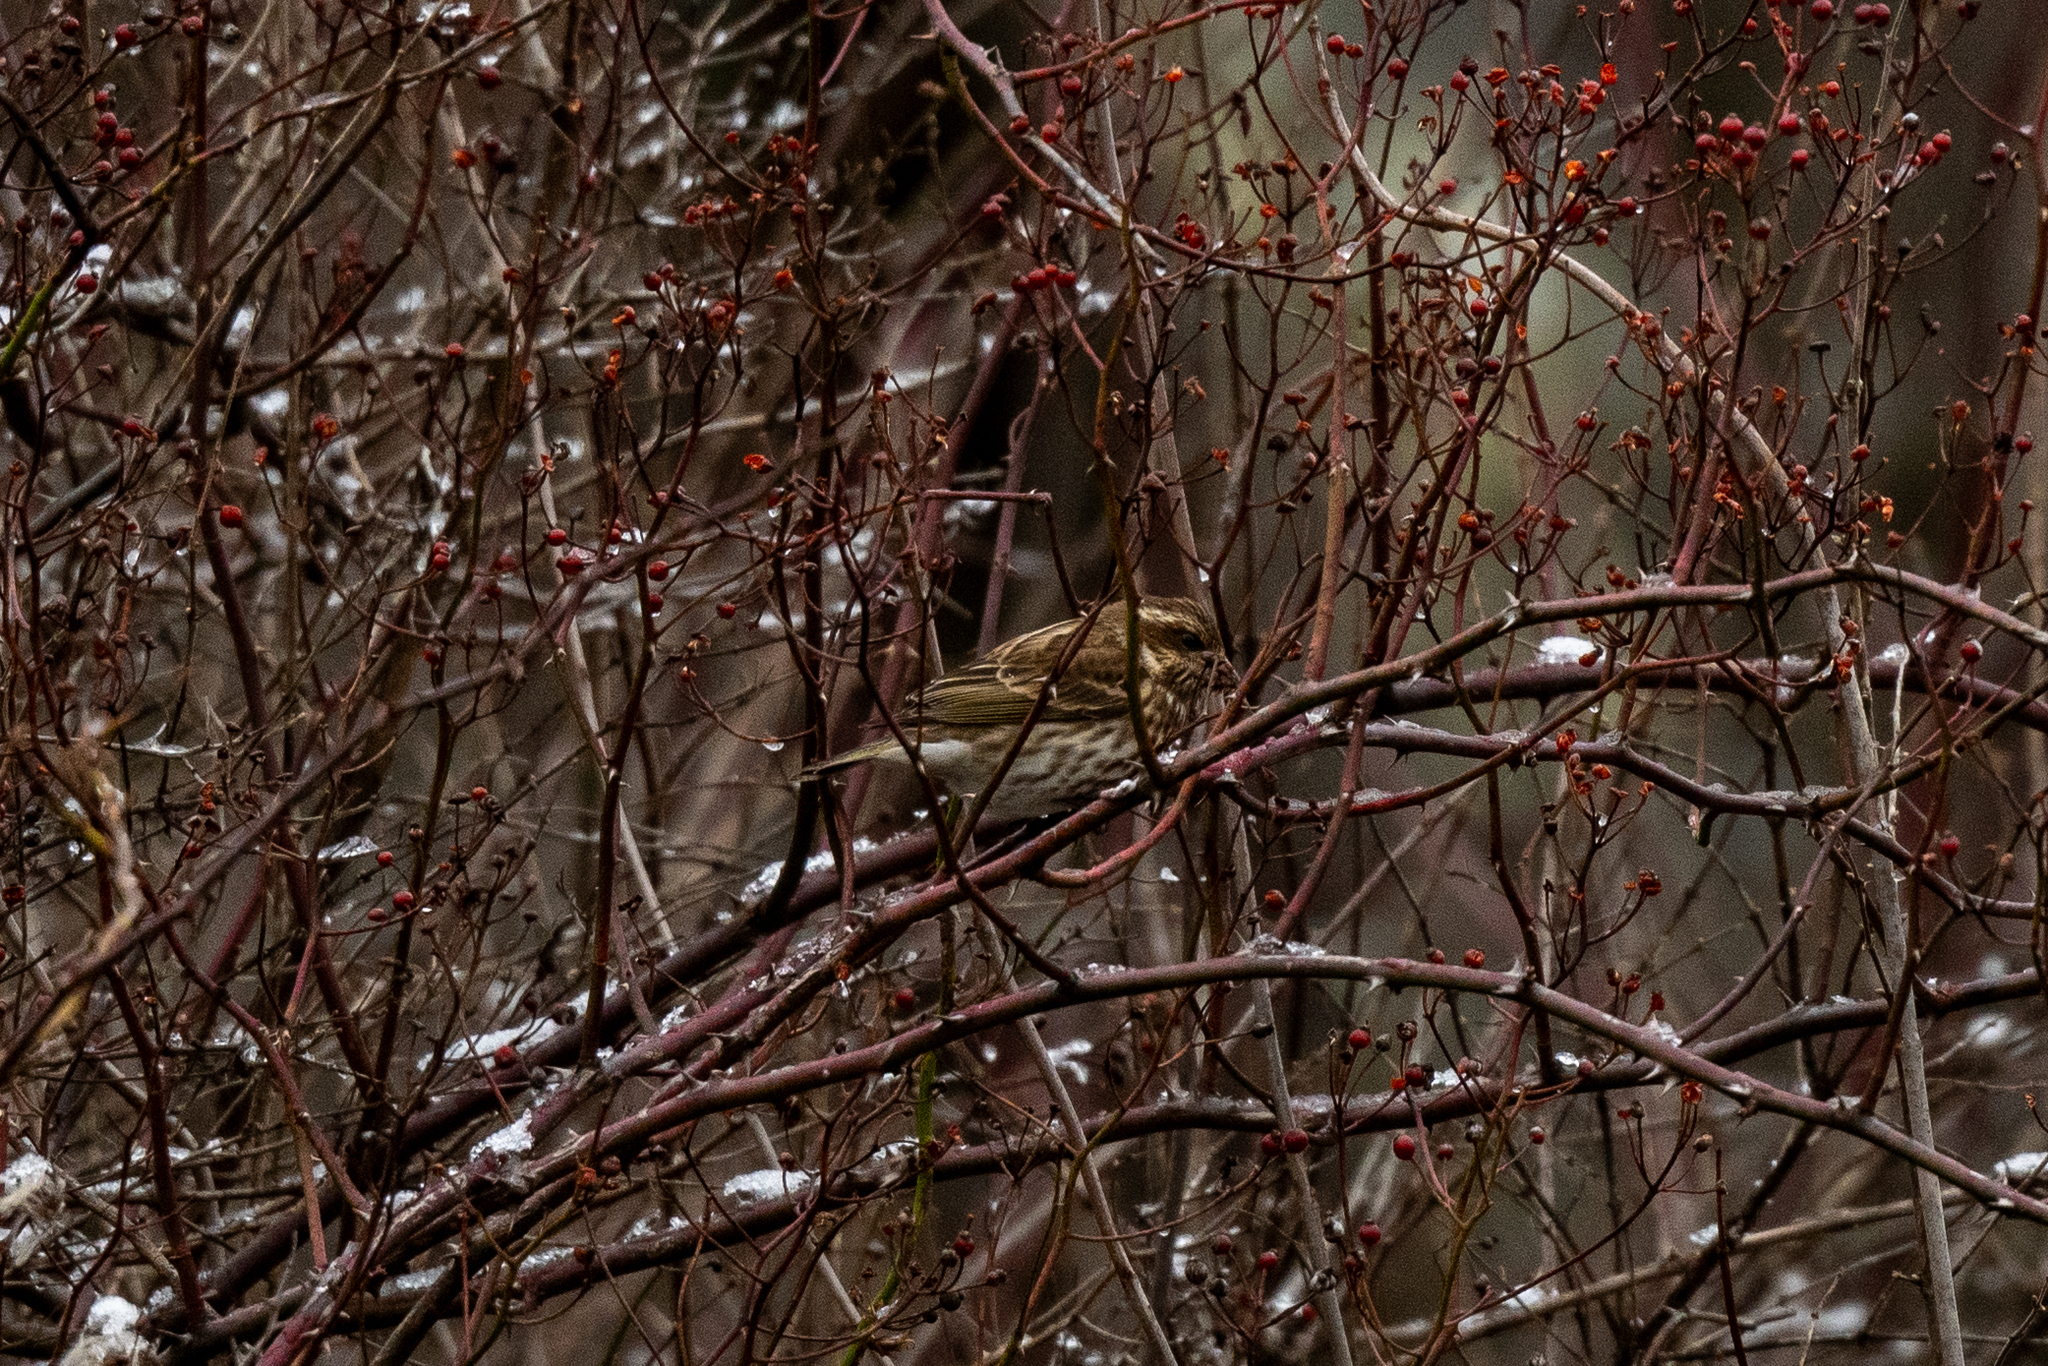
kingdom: Animalia
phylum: Chordata
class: Aves
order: Passeriformes
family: Fringillidae
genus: Haemorhous
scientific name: Haemorhous purpureus
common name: Purple finch
